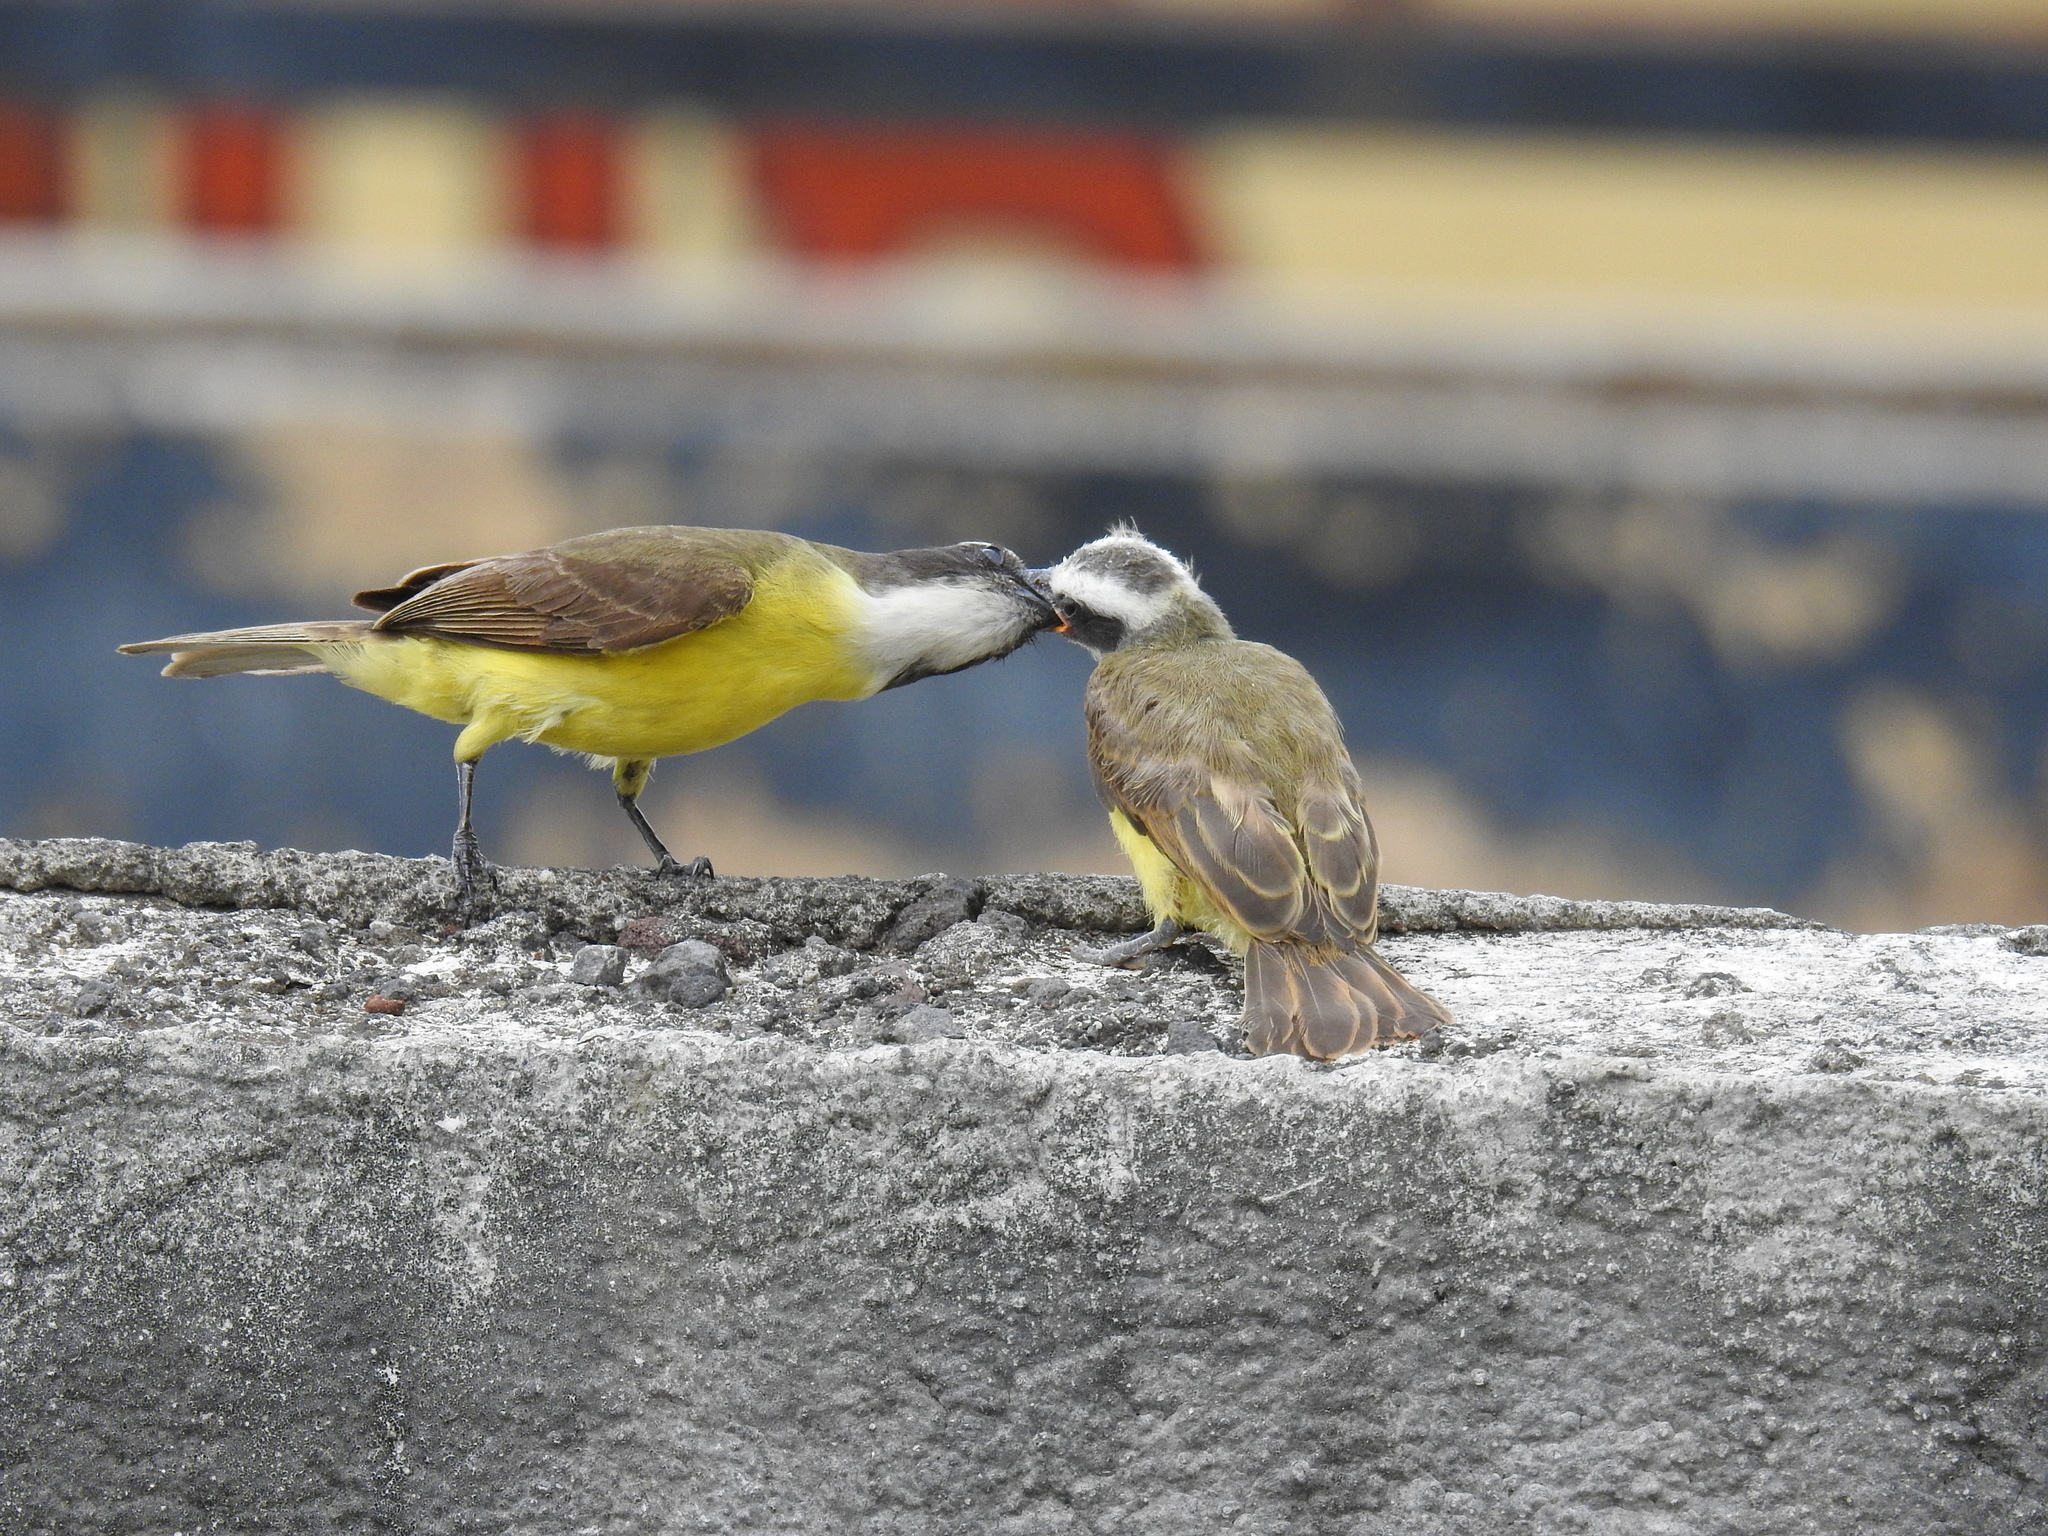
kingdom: Animalia
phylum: Chordata
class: Aves
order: Passeriformes
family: Tyrannidae
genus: Myiozetetes
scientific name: Myiozetetes similis
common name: Social flycatcher
